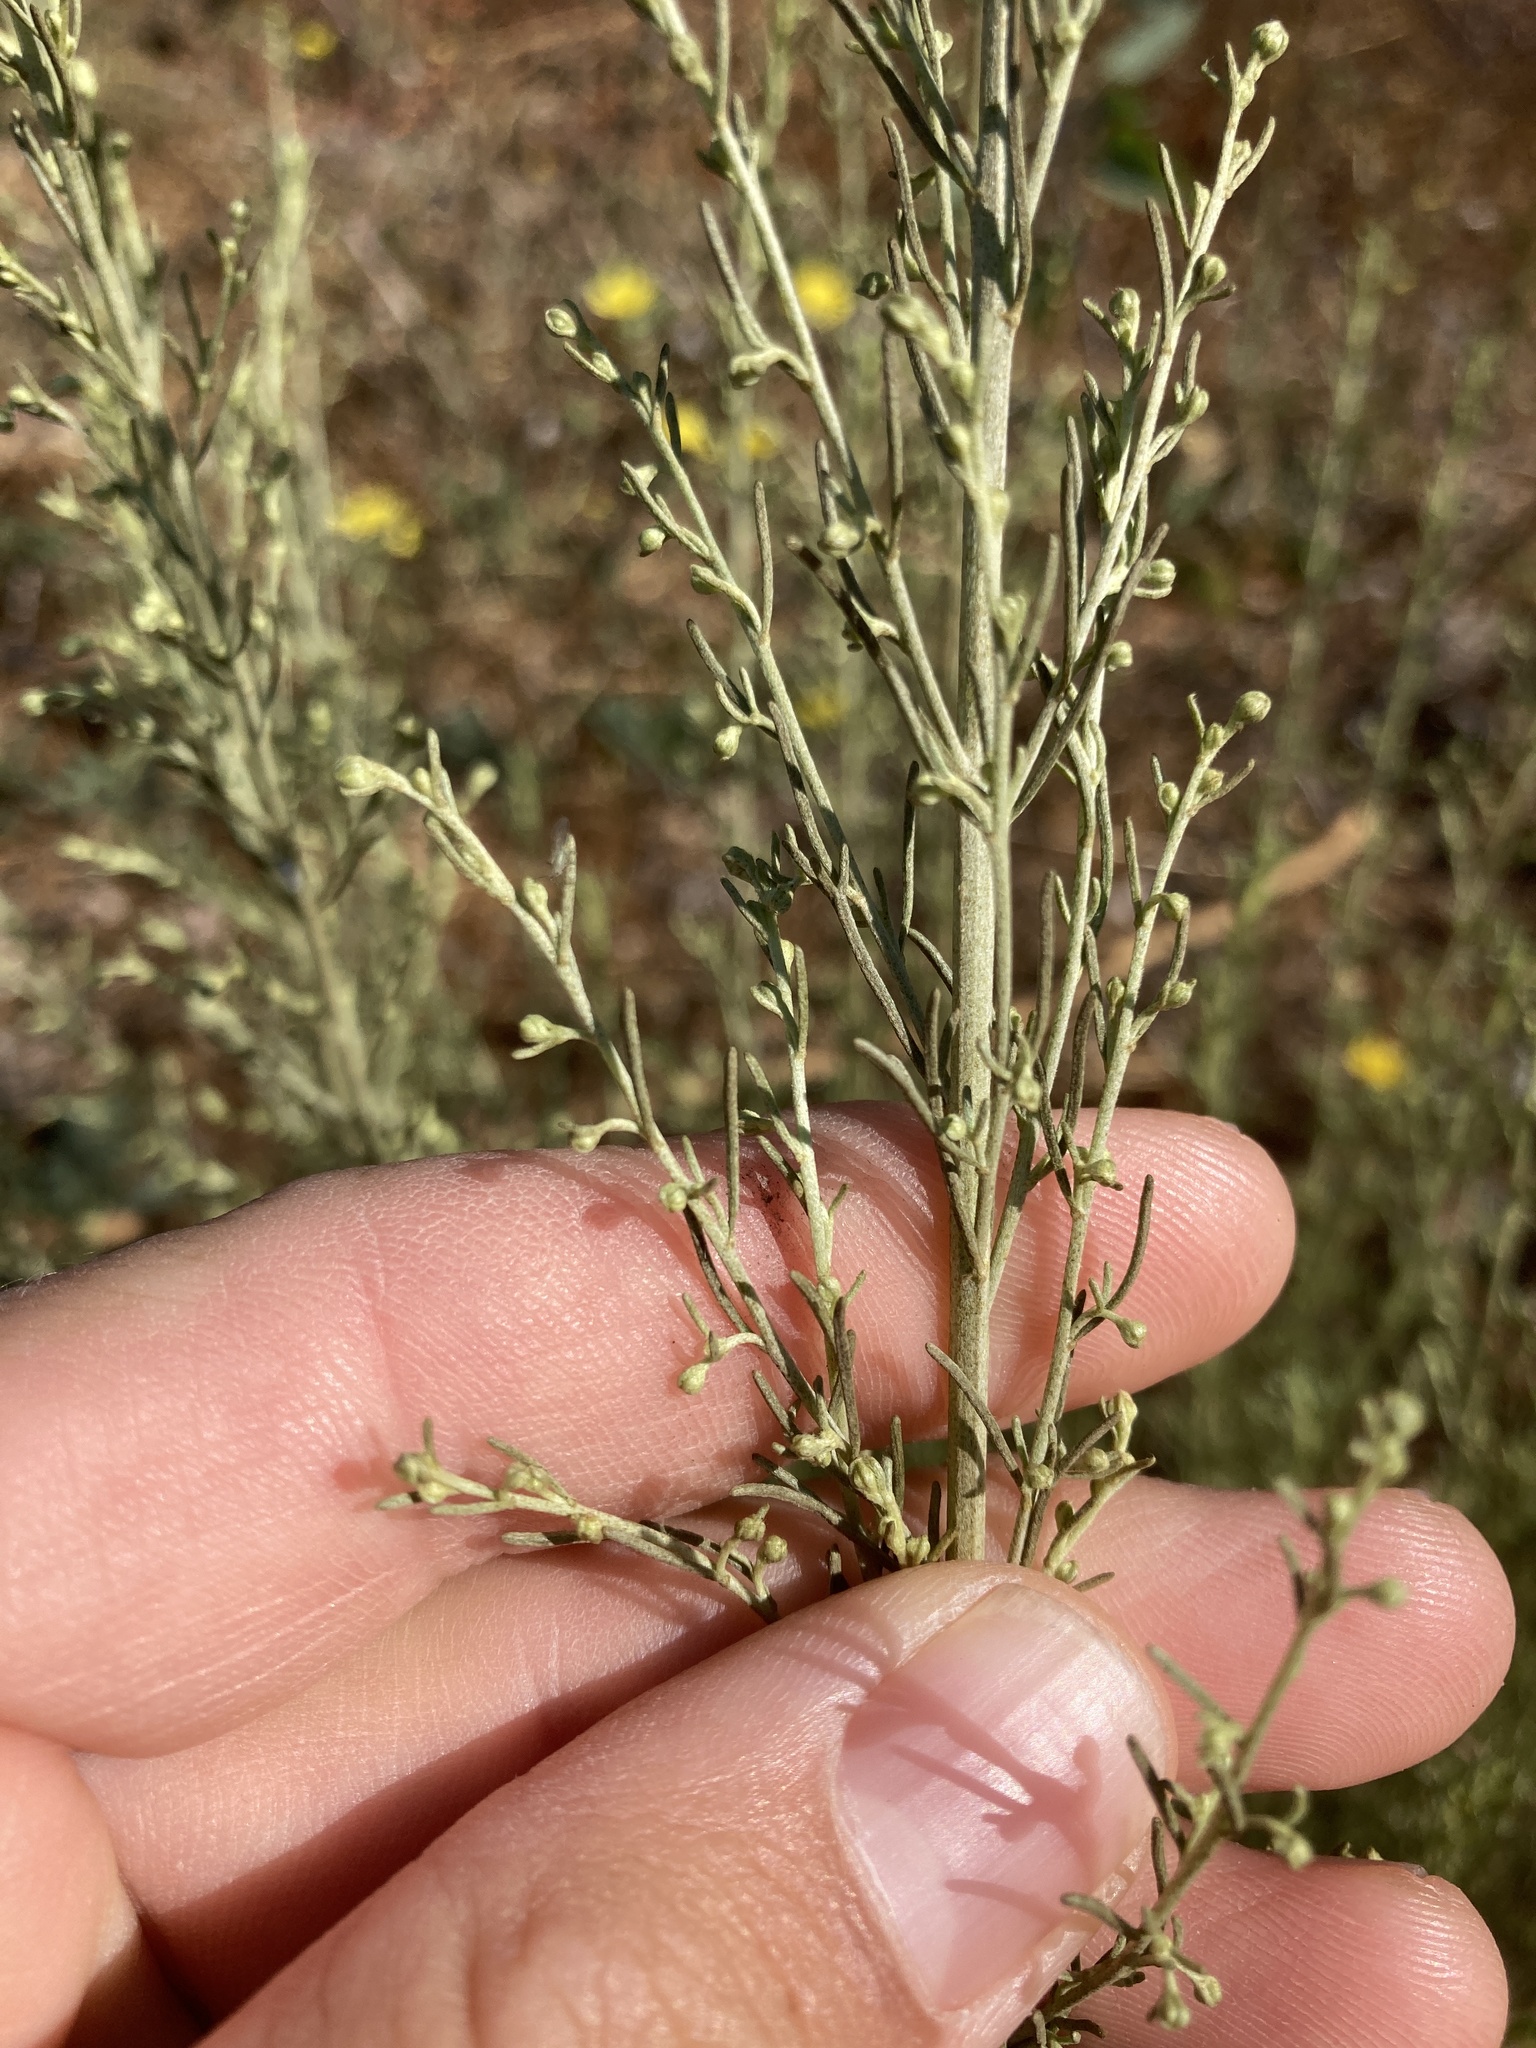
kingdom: Plantae
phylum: Tracheophyta
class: Magnoliopsida
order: Asterales
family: Asteraceae
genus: Artemisia
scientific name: Artemisia californica
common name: California sagebrush
